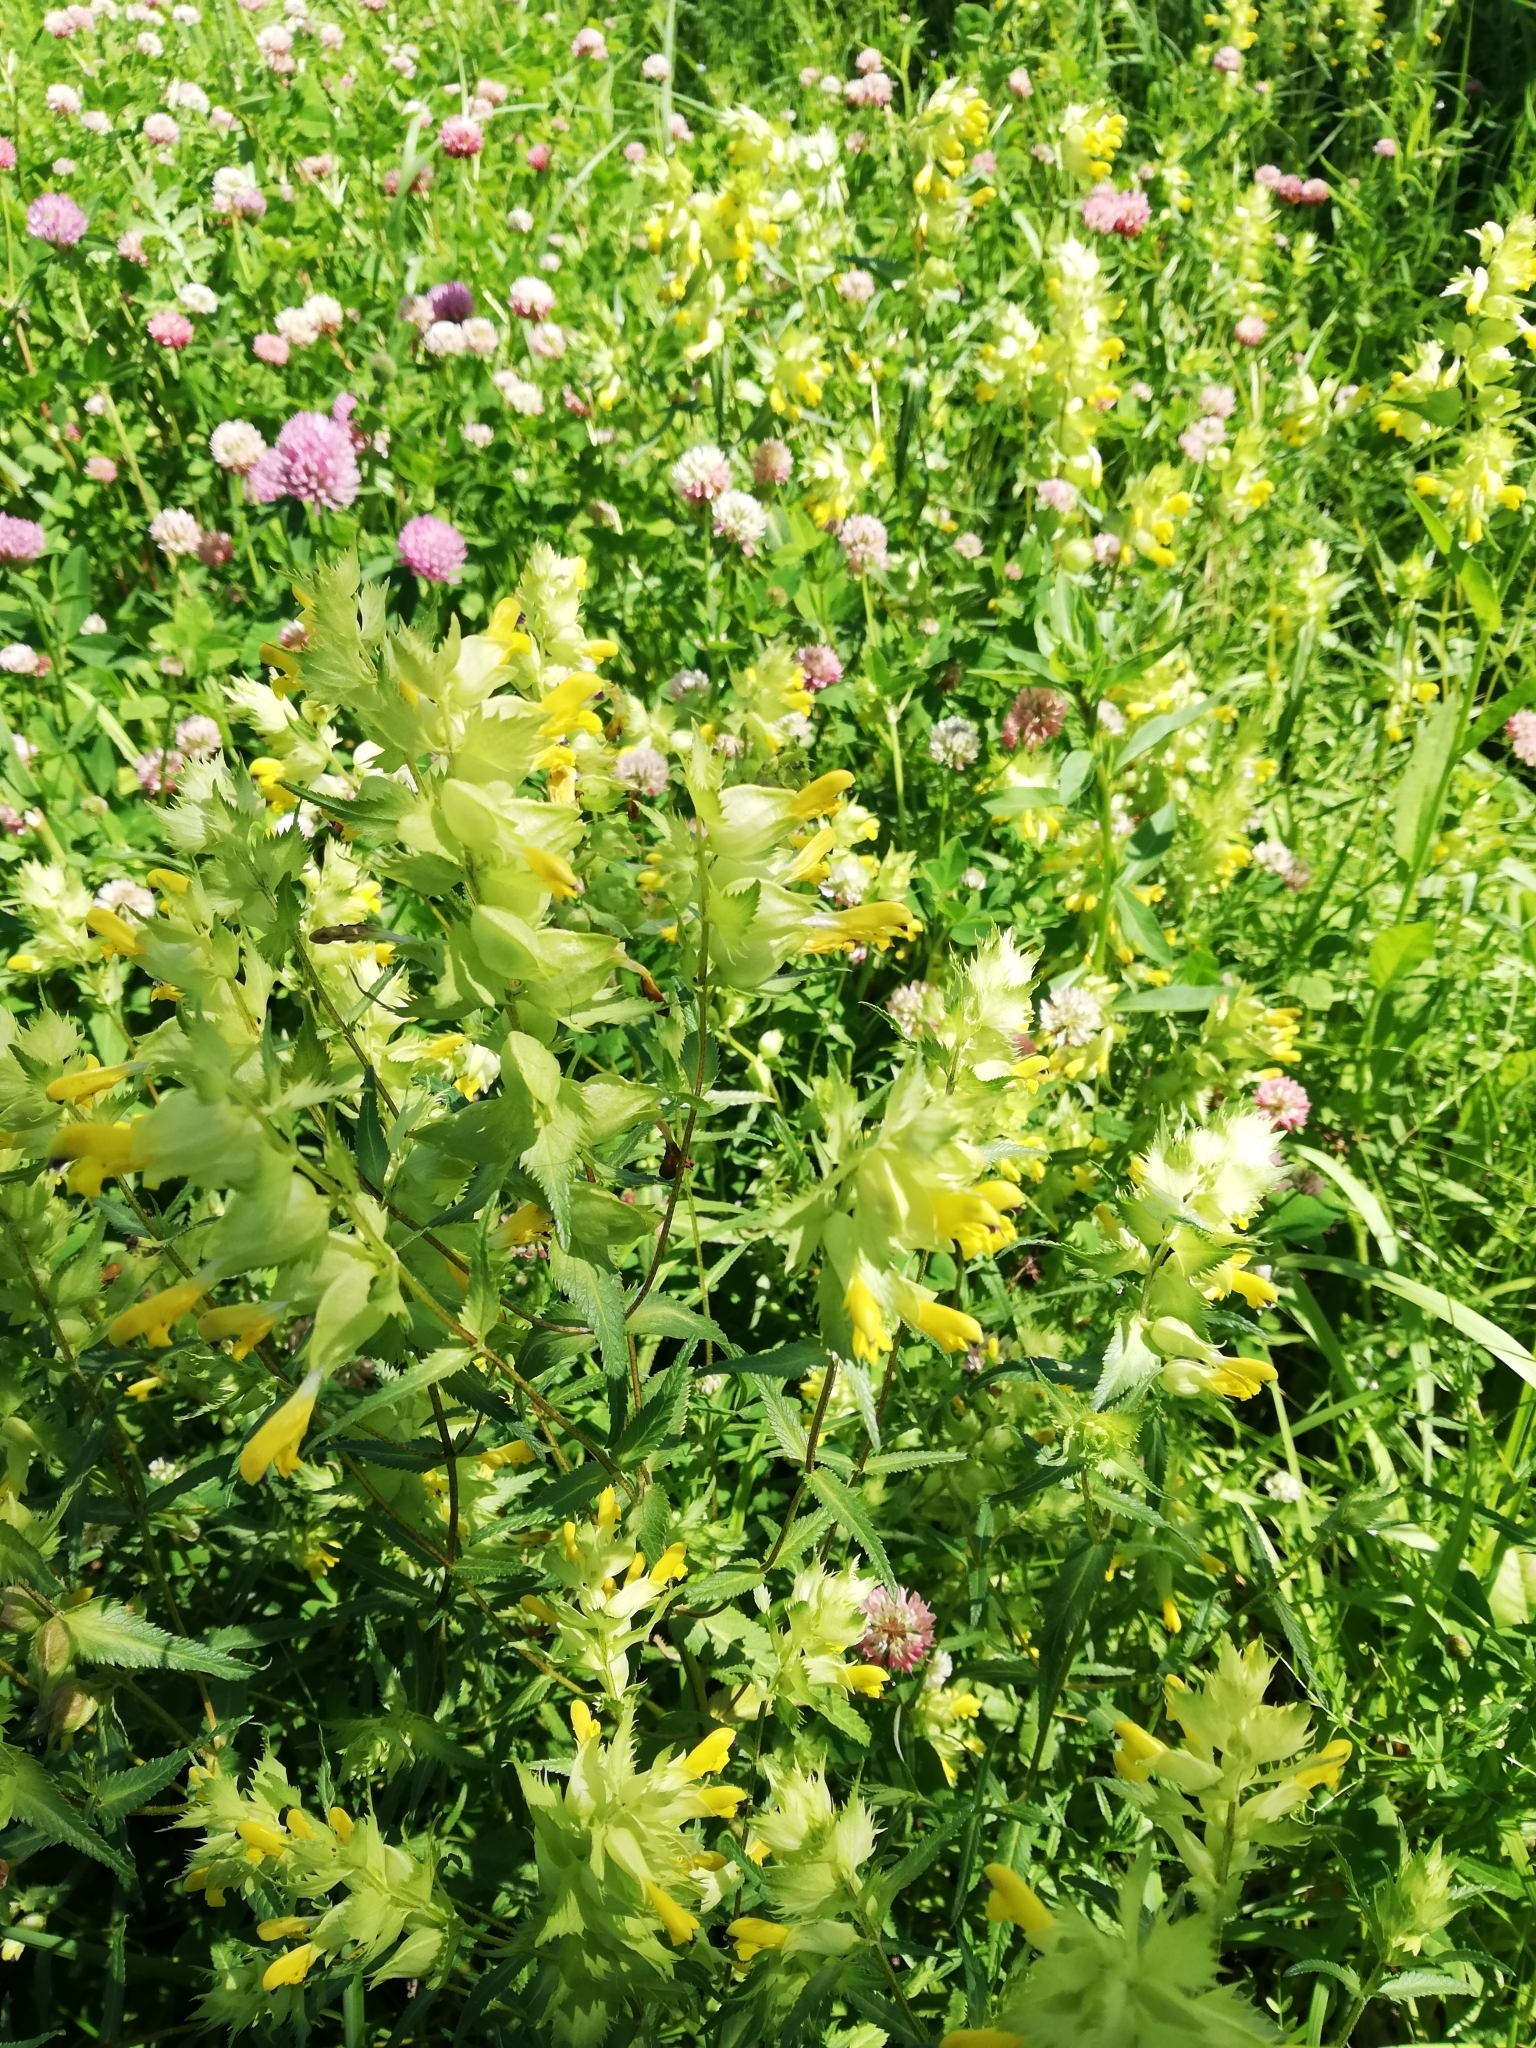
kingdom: Plantae
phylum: Tracheophyta
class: Magnoliopsida
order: Lamiales
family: Orobanchaceae
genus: Rhinanthus
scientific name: Rhinanthus serotinus
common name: Late-flowering yellow rattle
